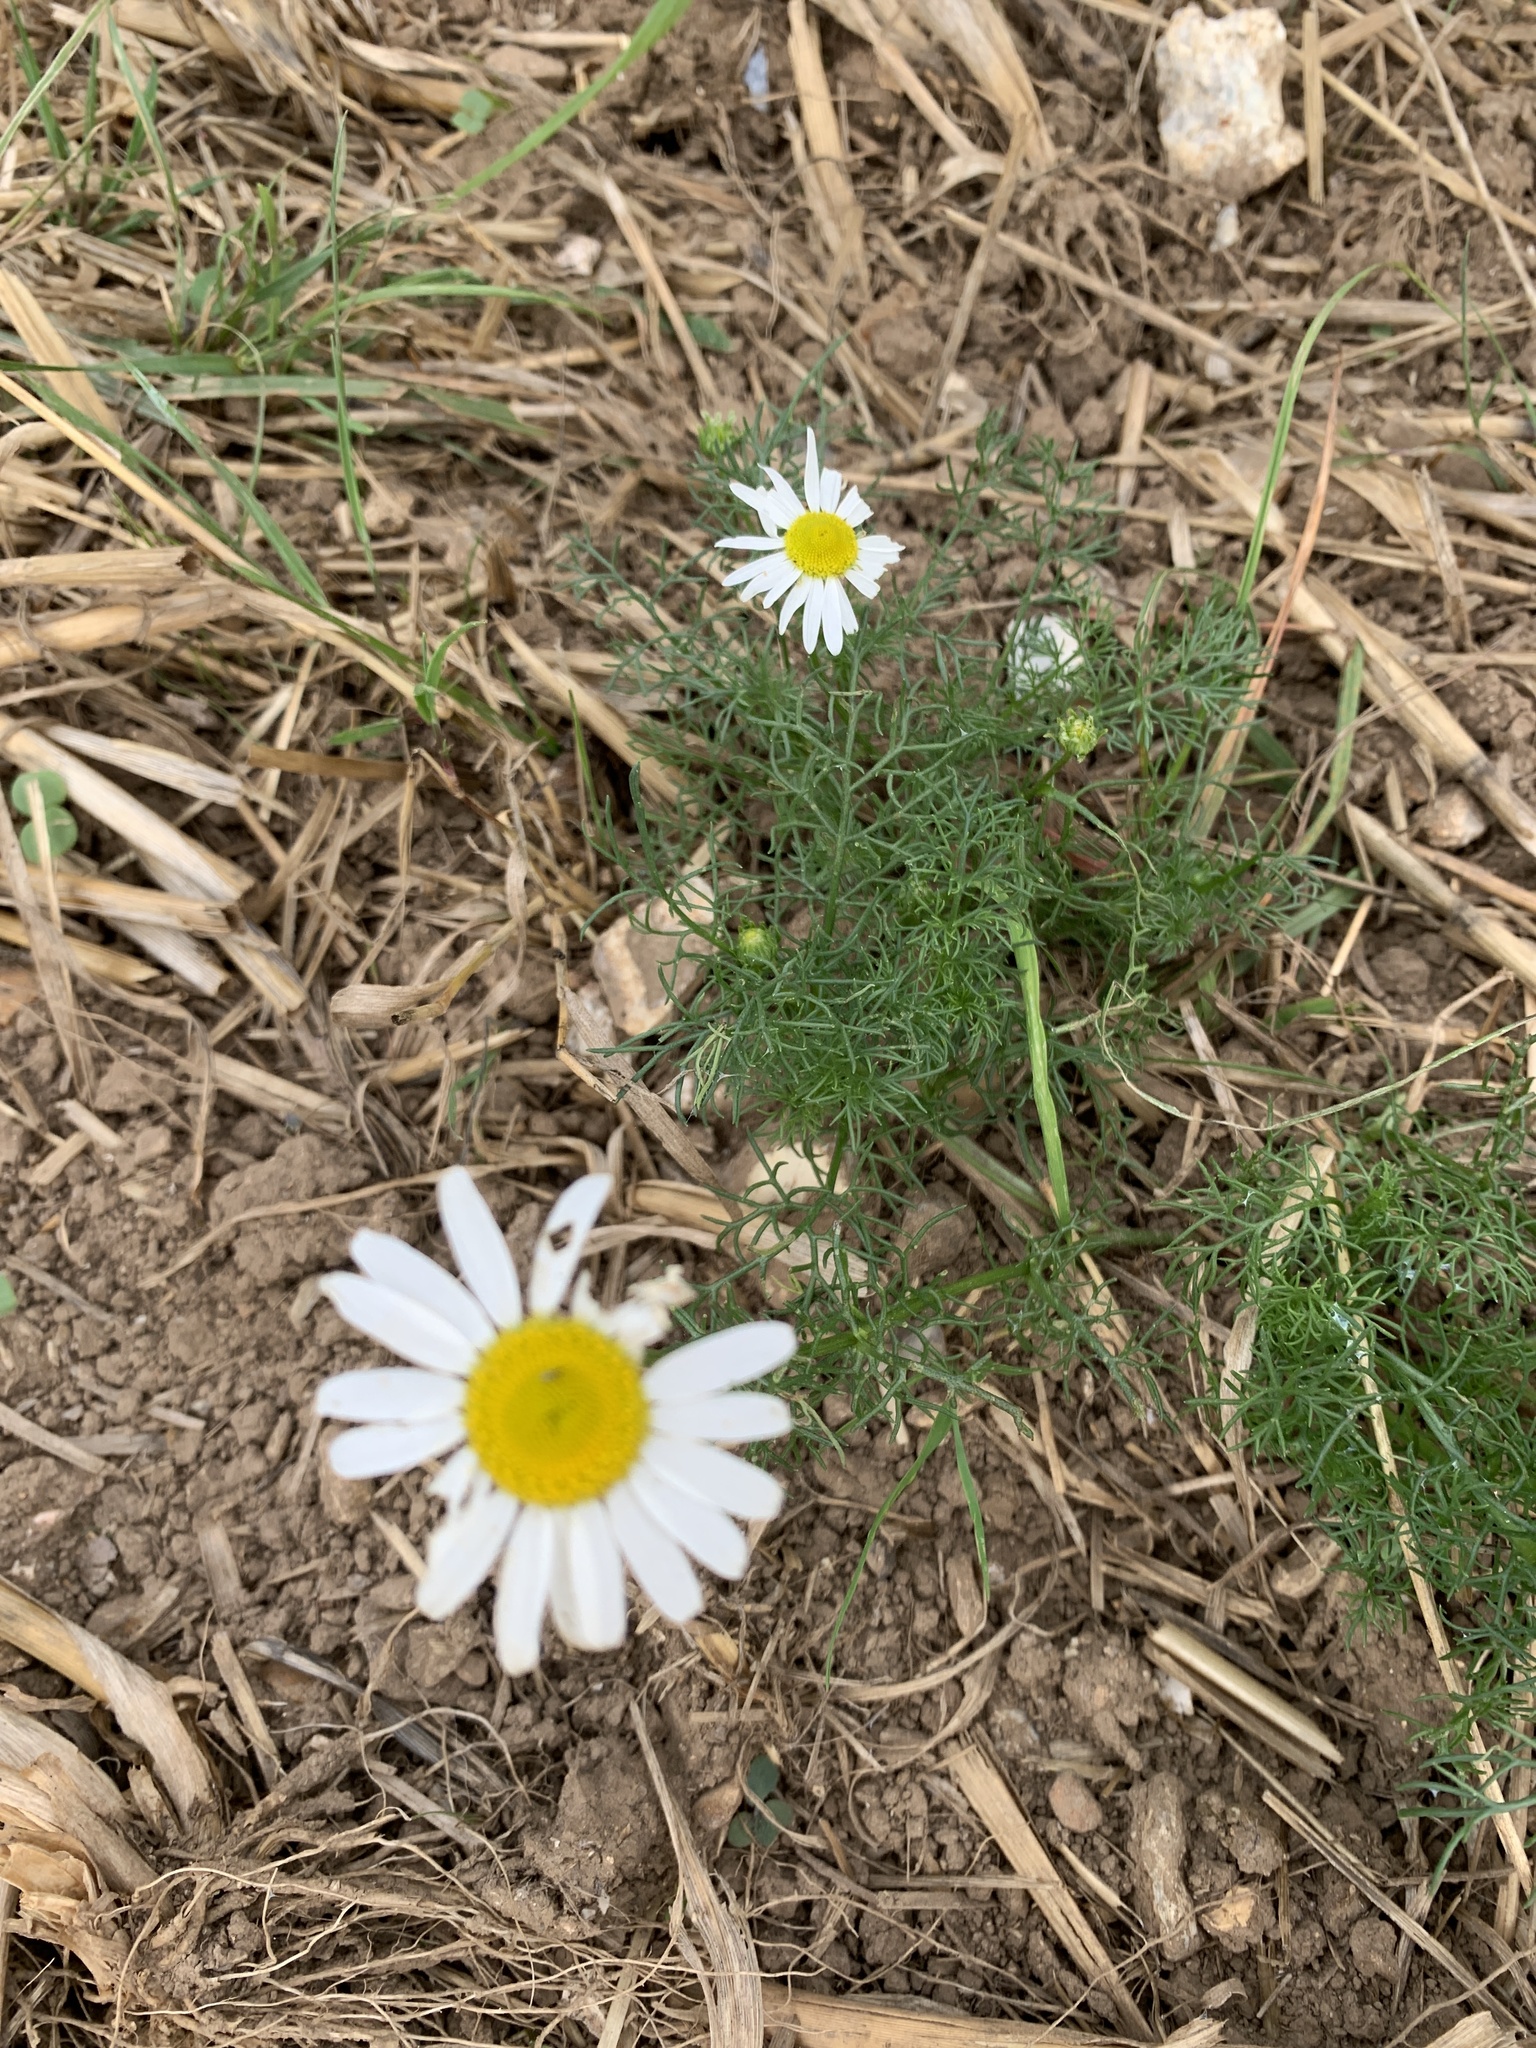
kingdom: Plantae
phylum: Tracheophyta
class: Magnoliopsida
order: Asterales
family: Asteraceae
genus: Tripleurospermum
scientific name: Tripleurospermum inodorum
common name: Scentless mayweed
